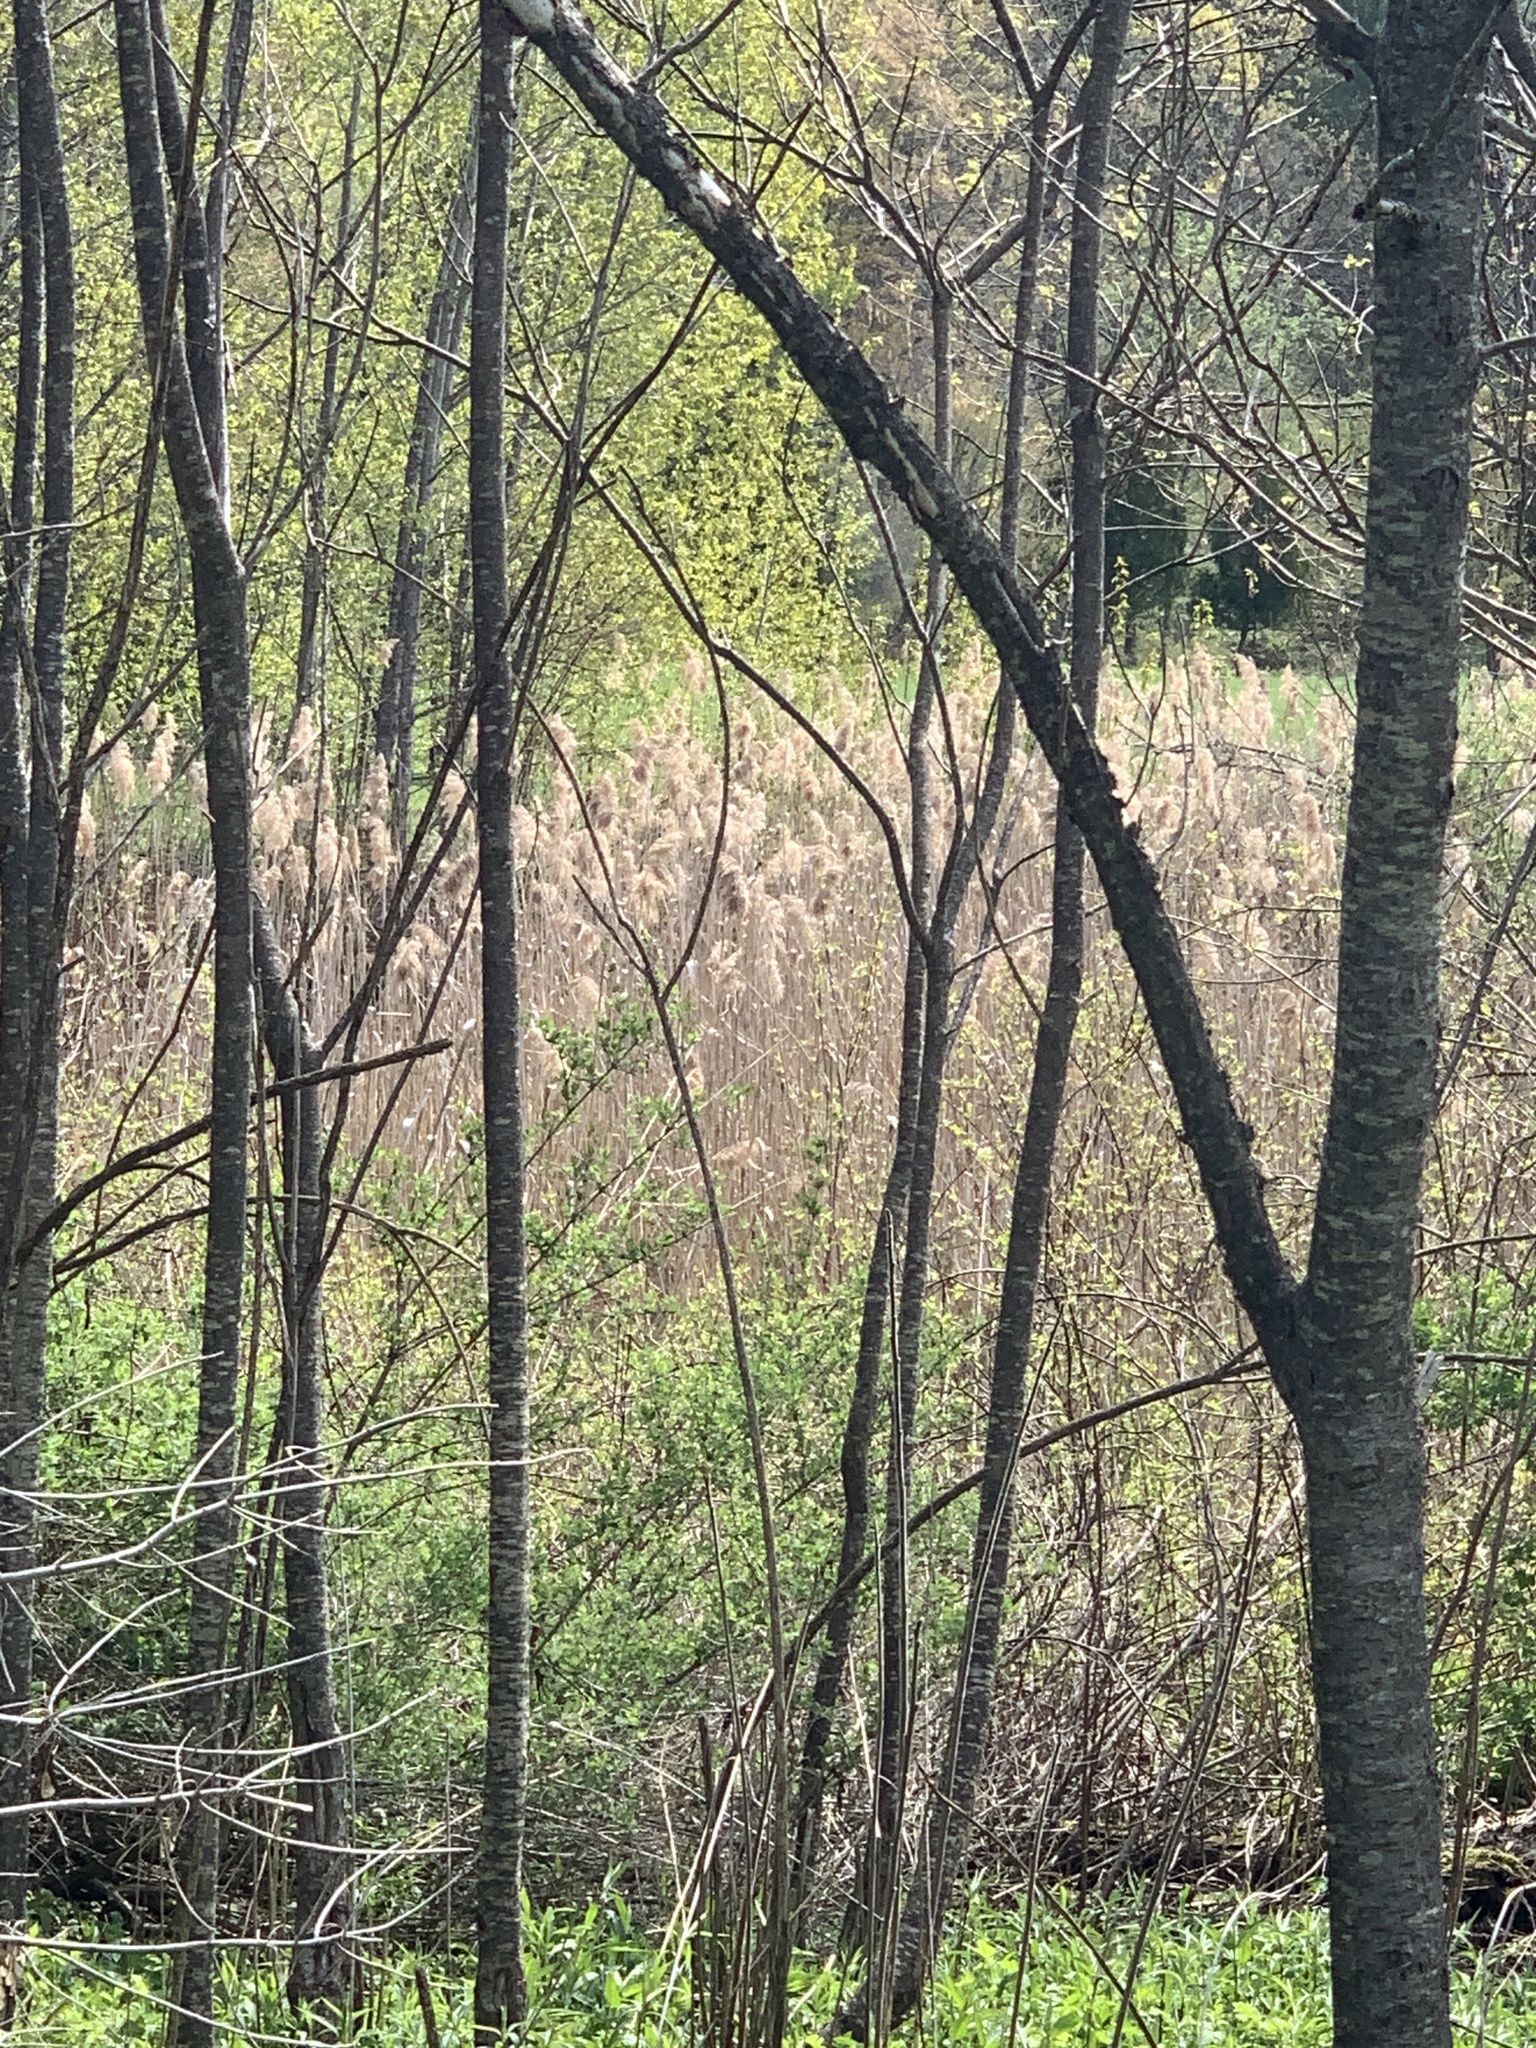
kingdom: Plantae
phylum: Tracheophyta
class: Liliopsida
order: Poales
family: Poaceae
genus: Phragmites
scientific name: Phragmites australis
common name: Common reed
